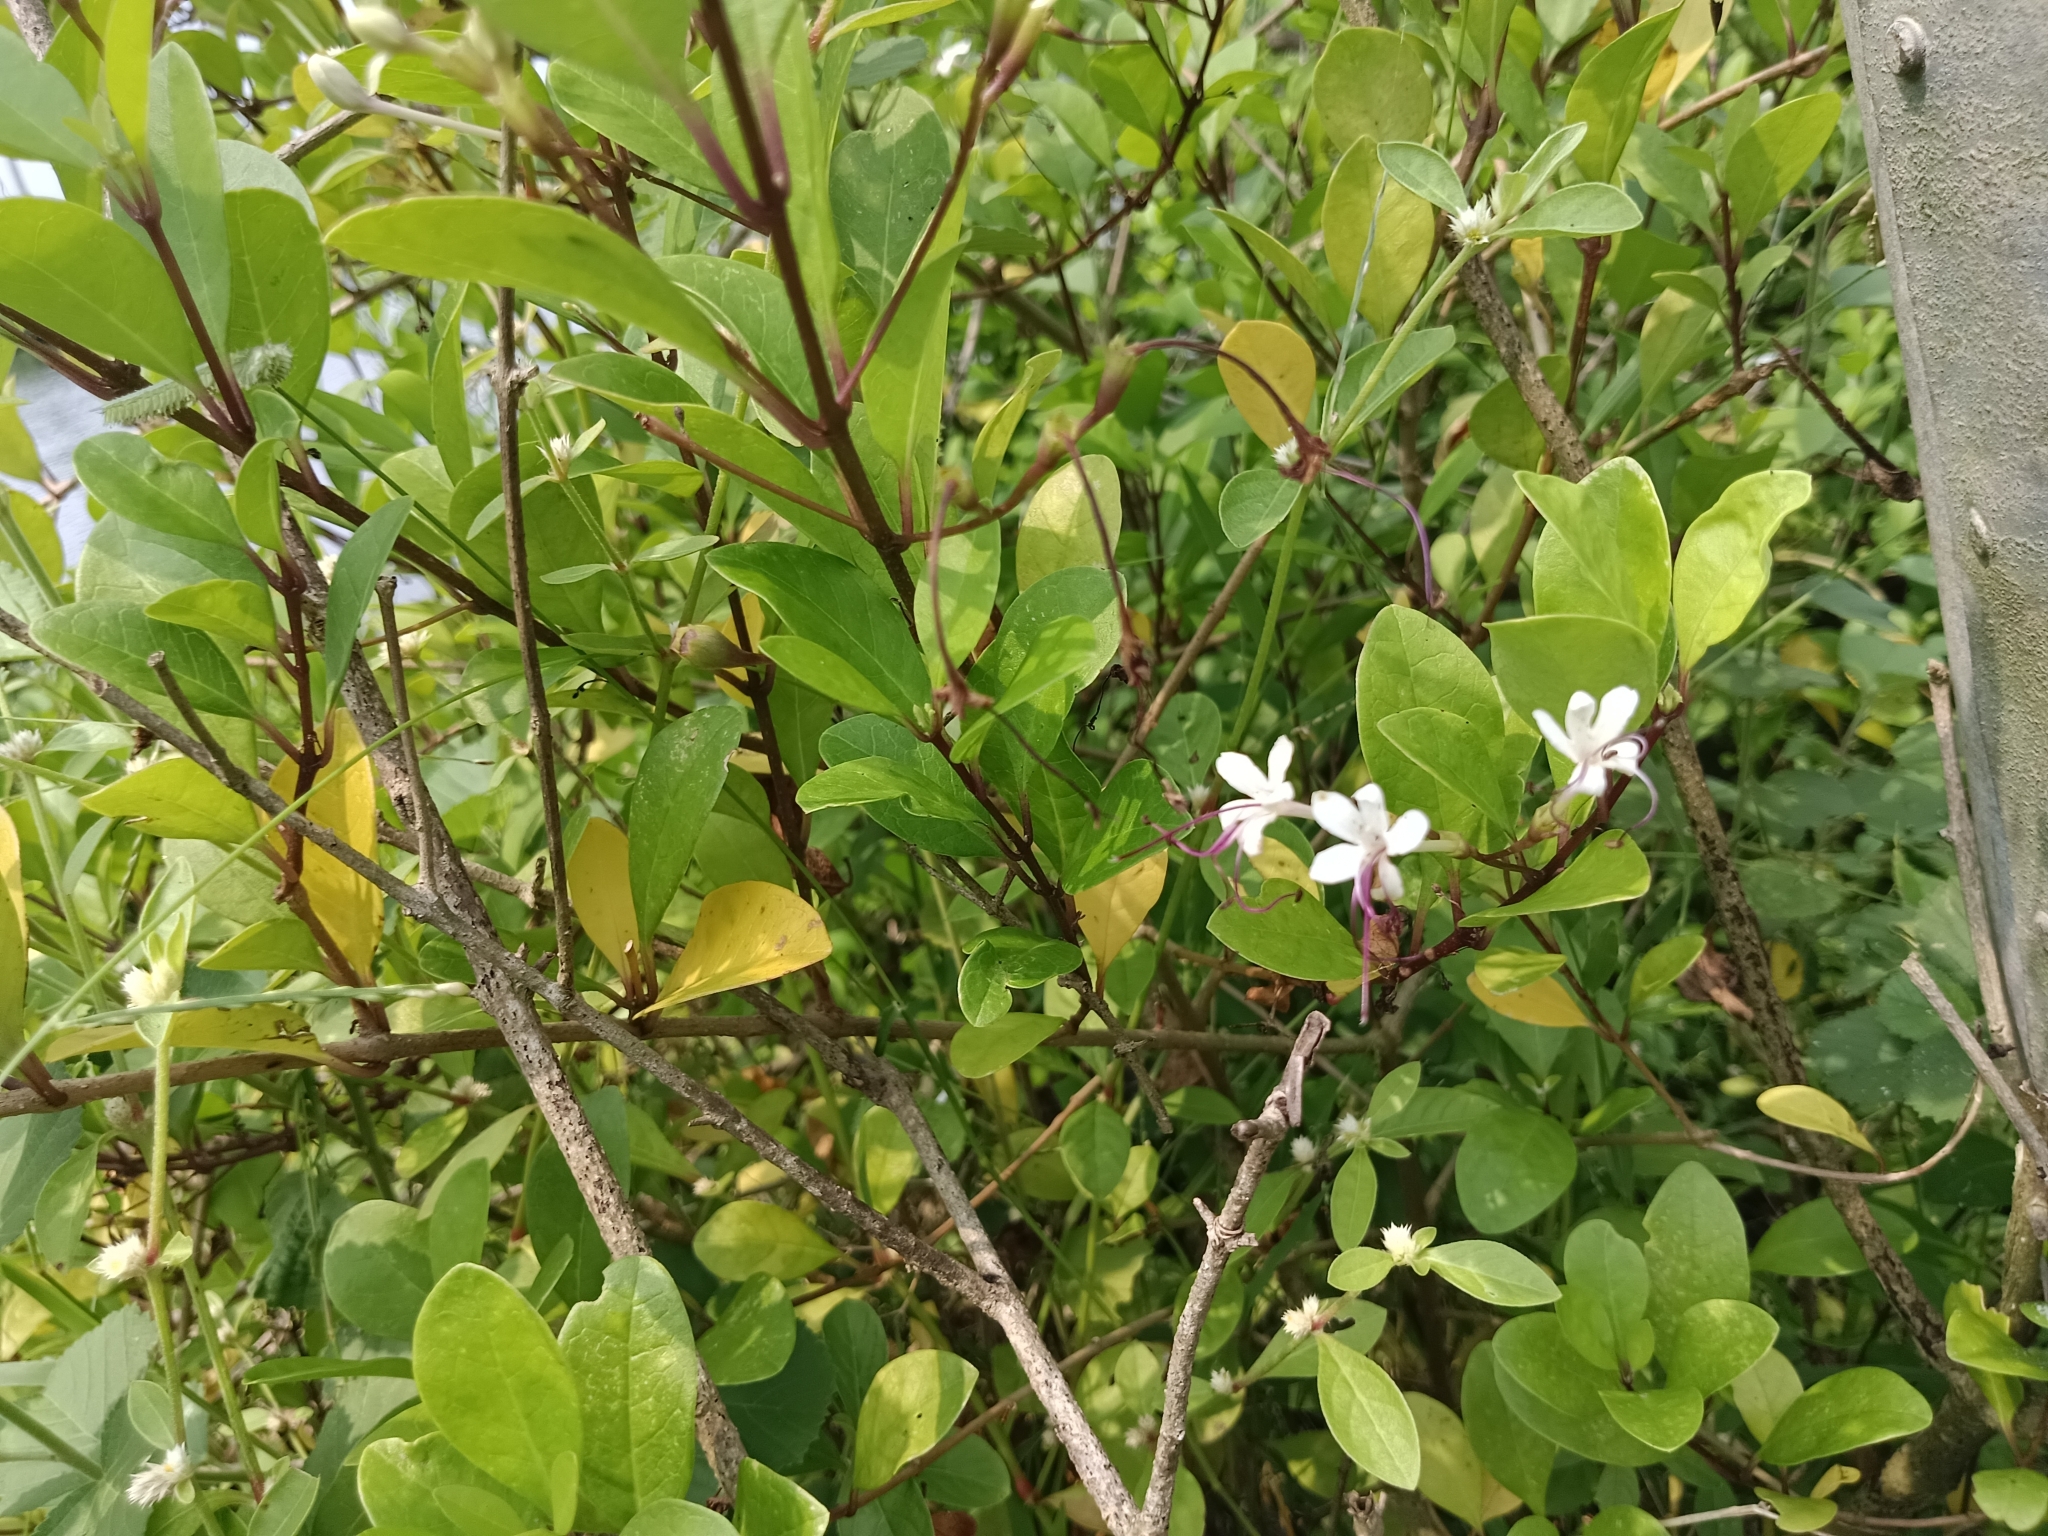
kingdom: Plantae
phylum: Tracheophyta
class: Magnoliopsida
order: Lamiales
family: Lamiaceae
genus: Volkameria
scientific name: Volkameria inermis
